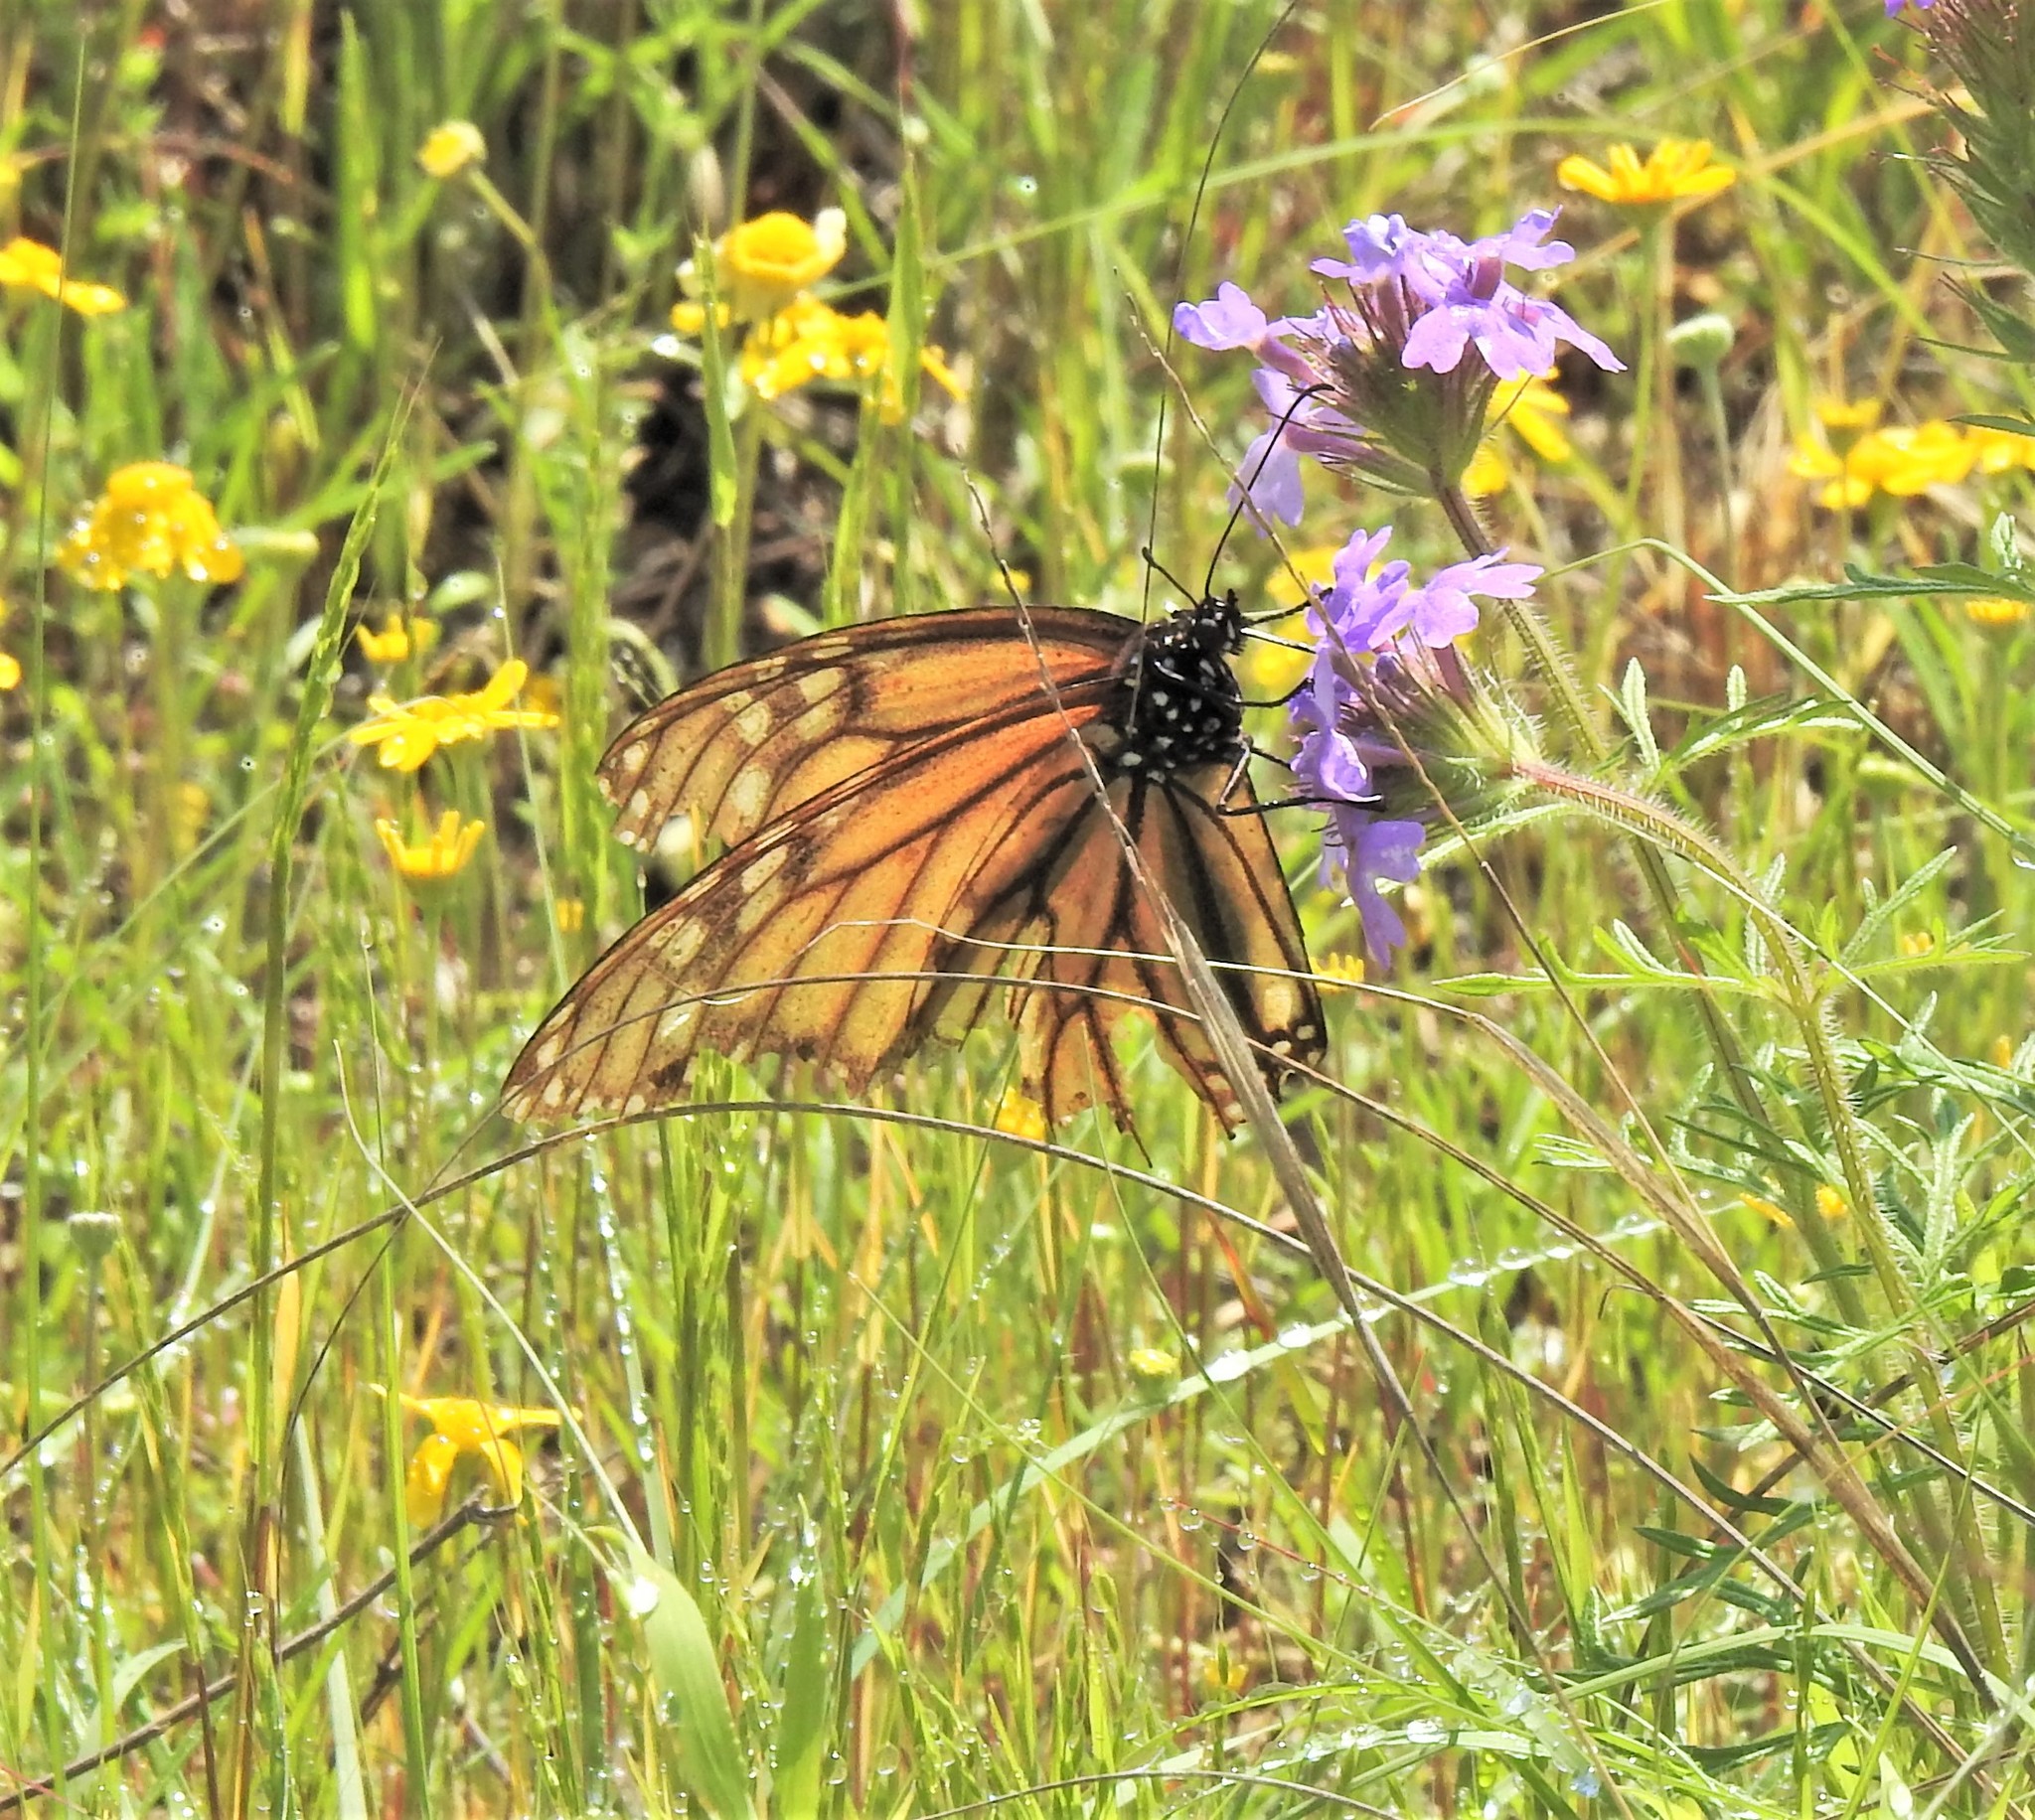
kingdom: Animalia
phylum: Arthropoda
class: Insecta
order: Lepidoptera
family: Nymphalidae
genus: Danaus
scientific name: Danaus plexippus
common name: Monarch
